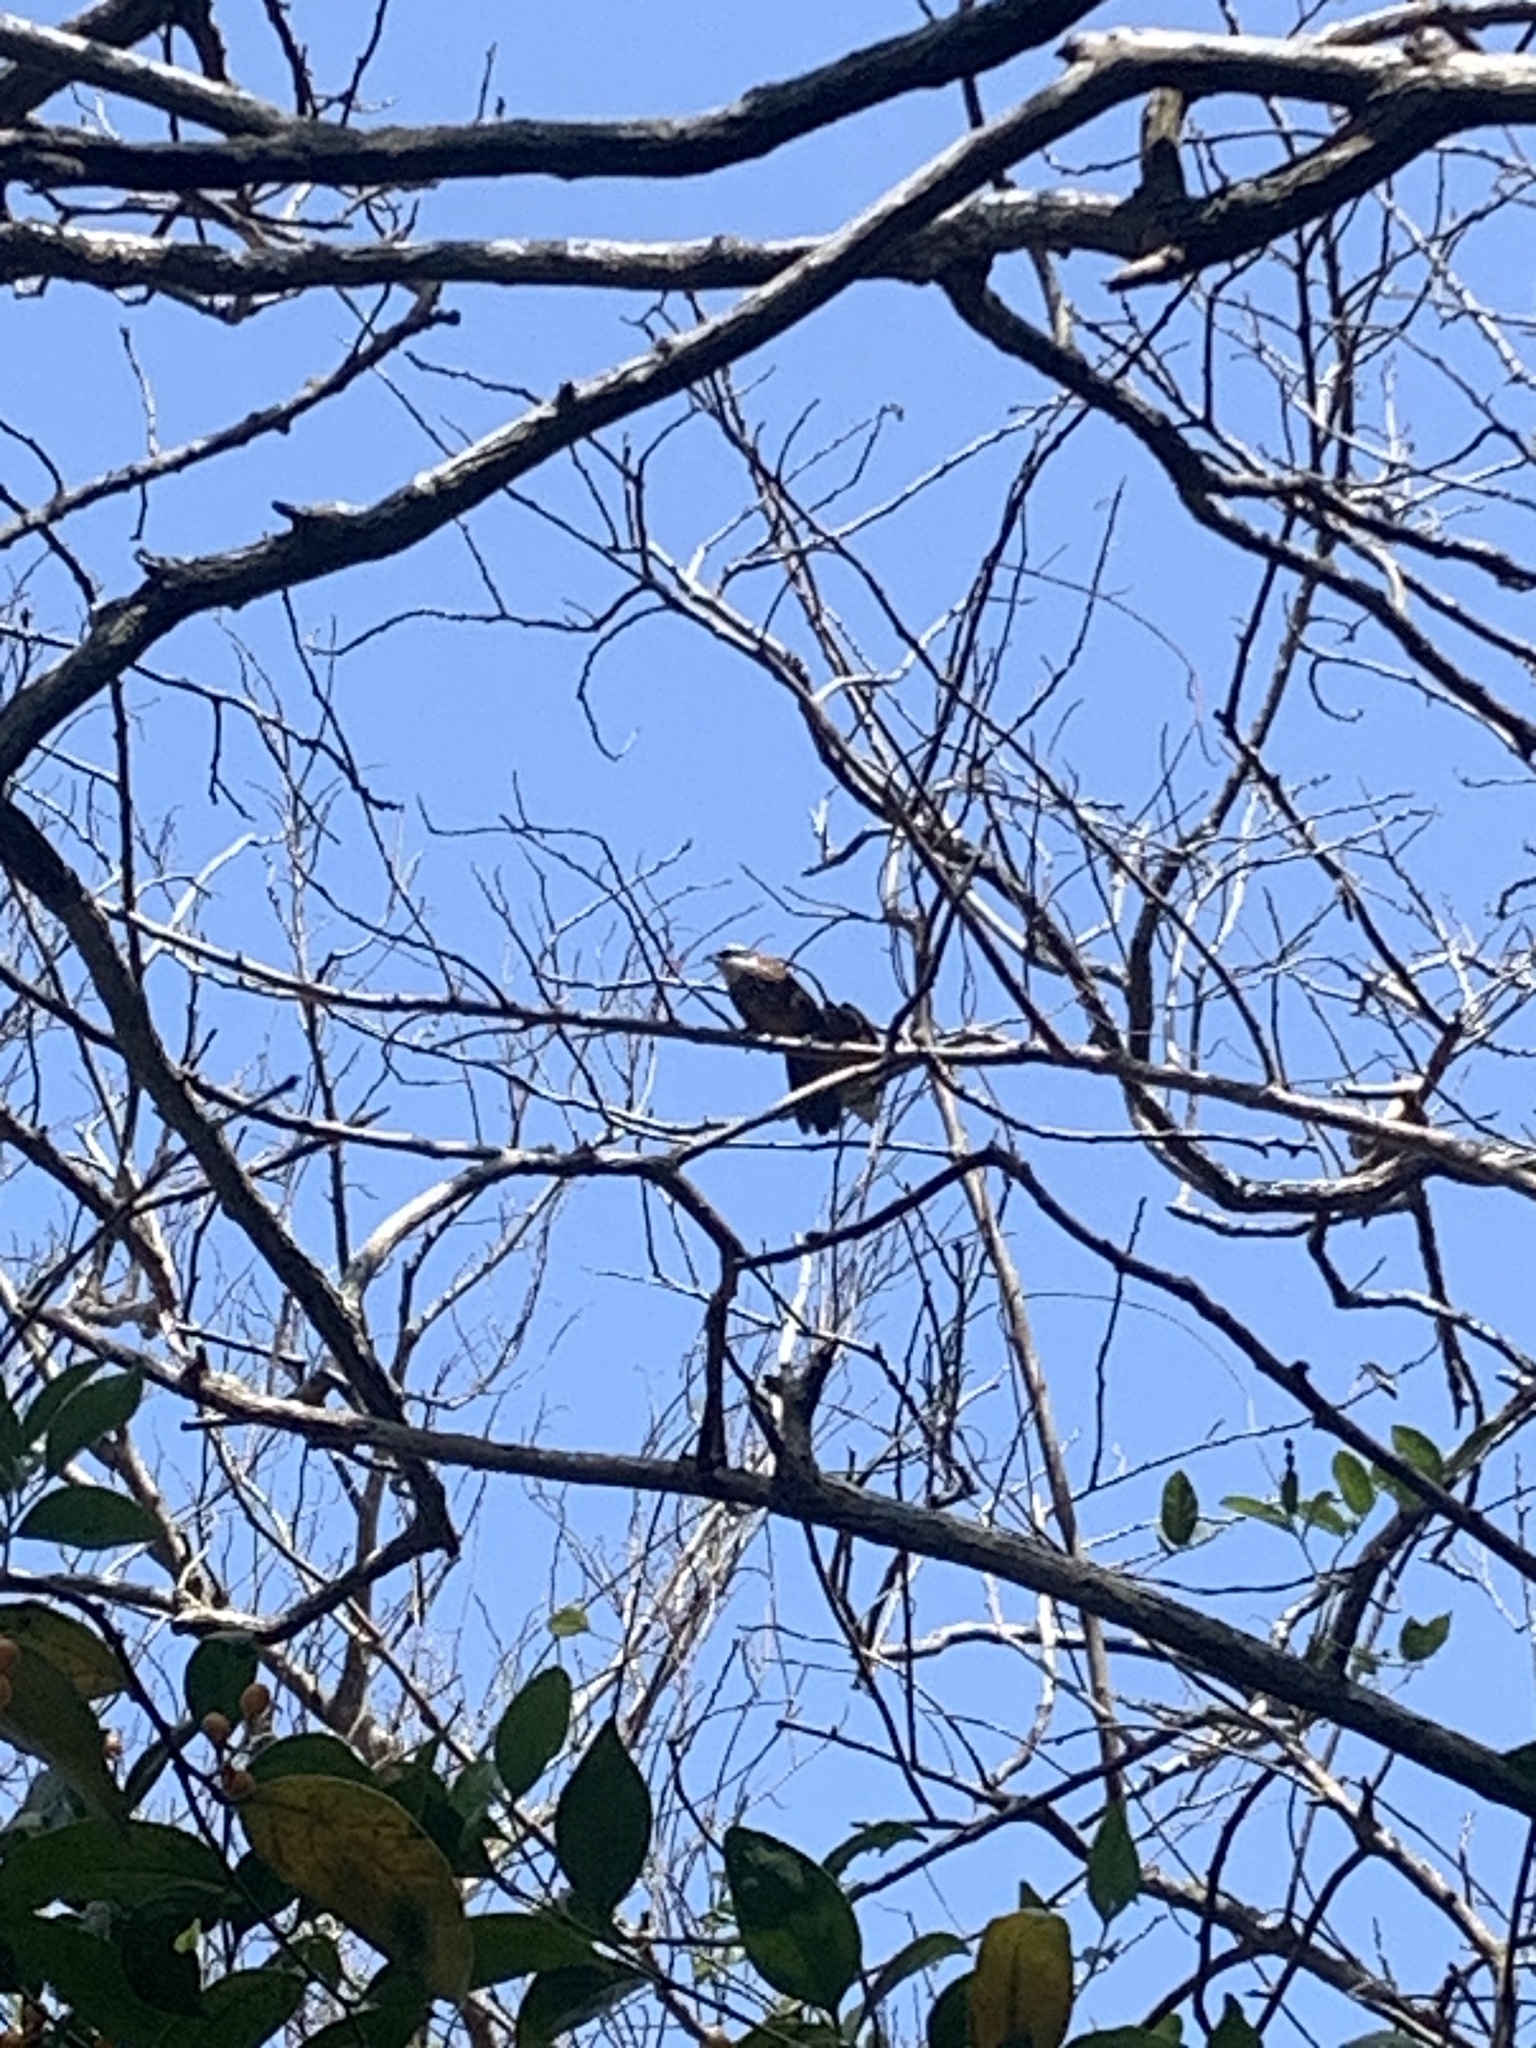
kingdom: Animalia
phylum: Chordata
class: Aves
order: Passeriformes
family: Timaliidae
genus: Pomatorhinus
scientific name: Pomatorhinus musicus
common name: Taiwan scimitar-babbler
